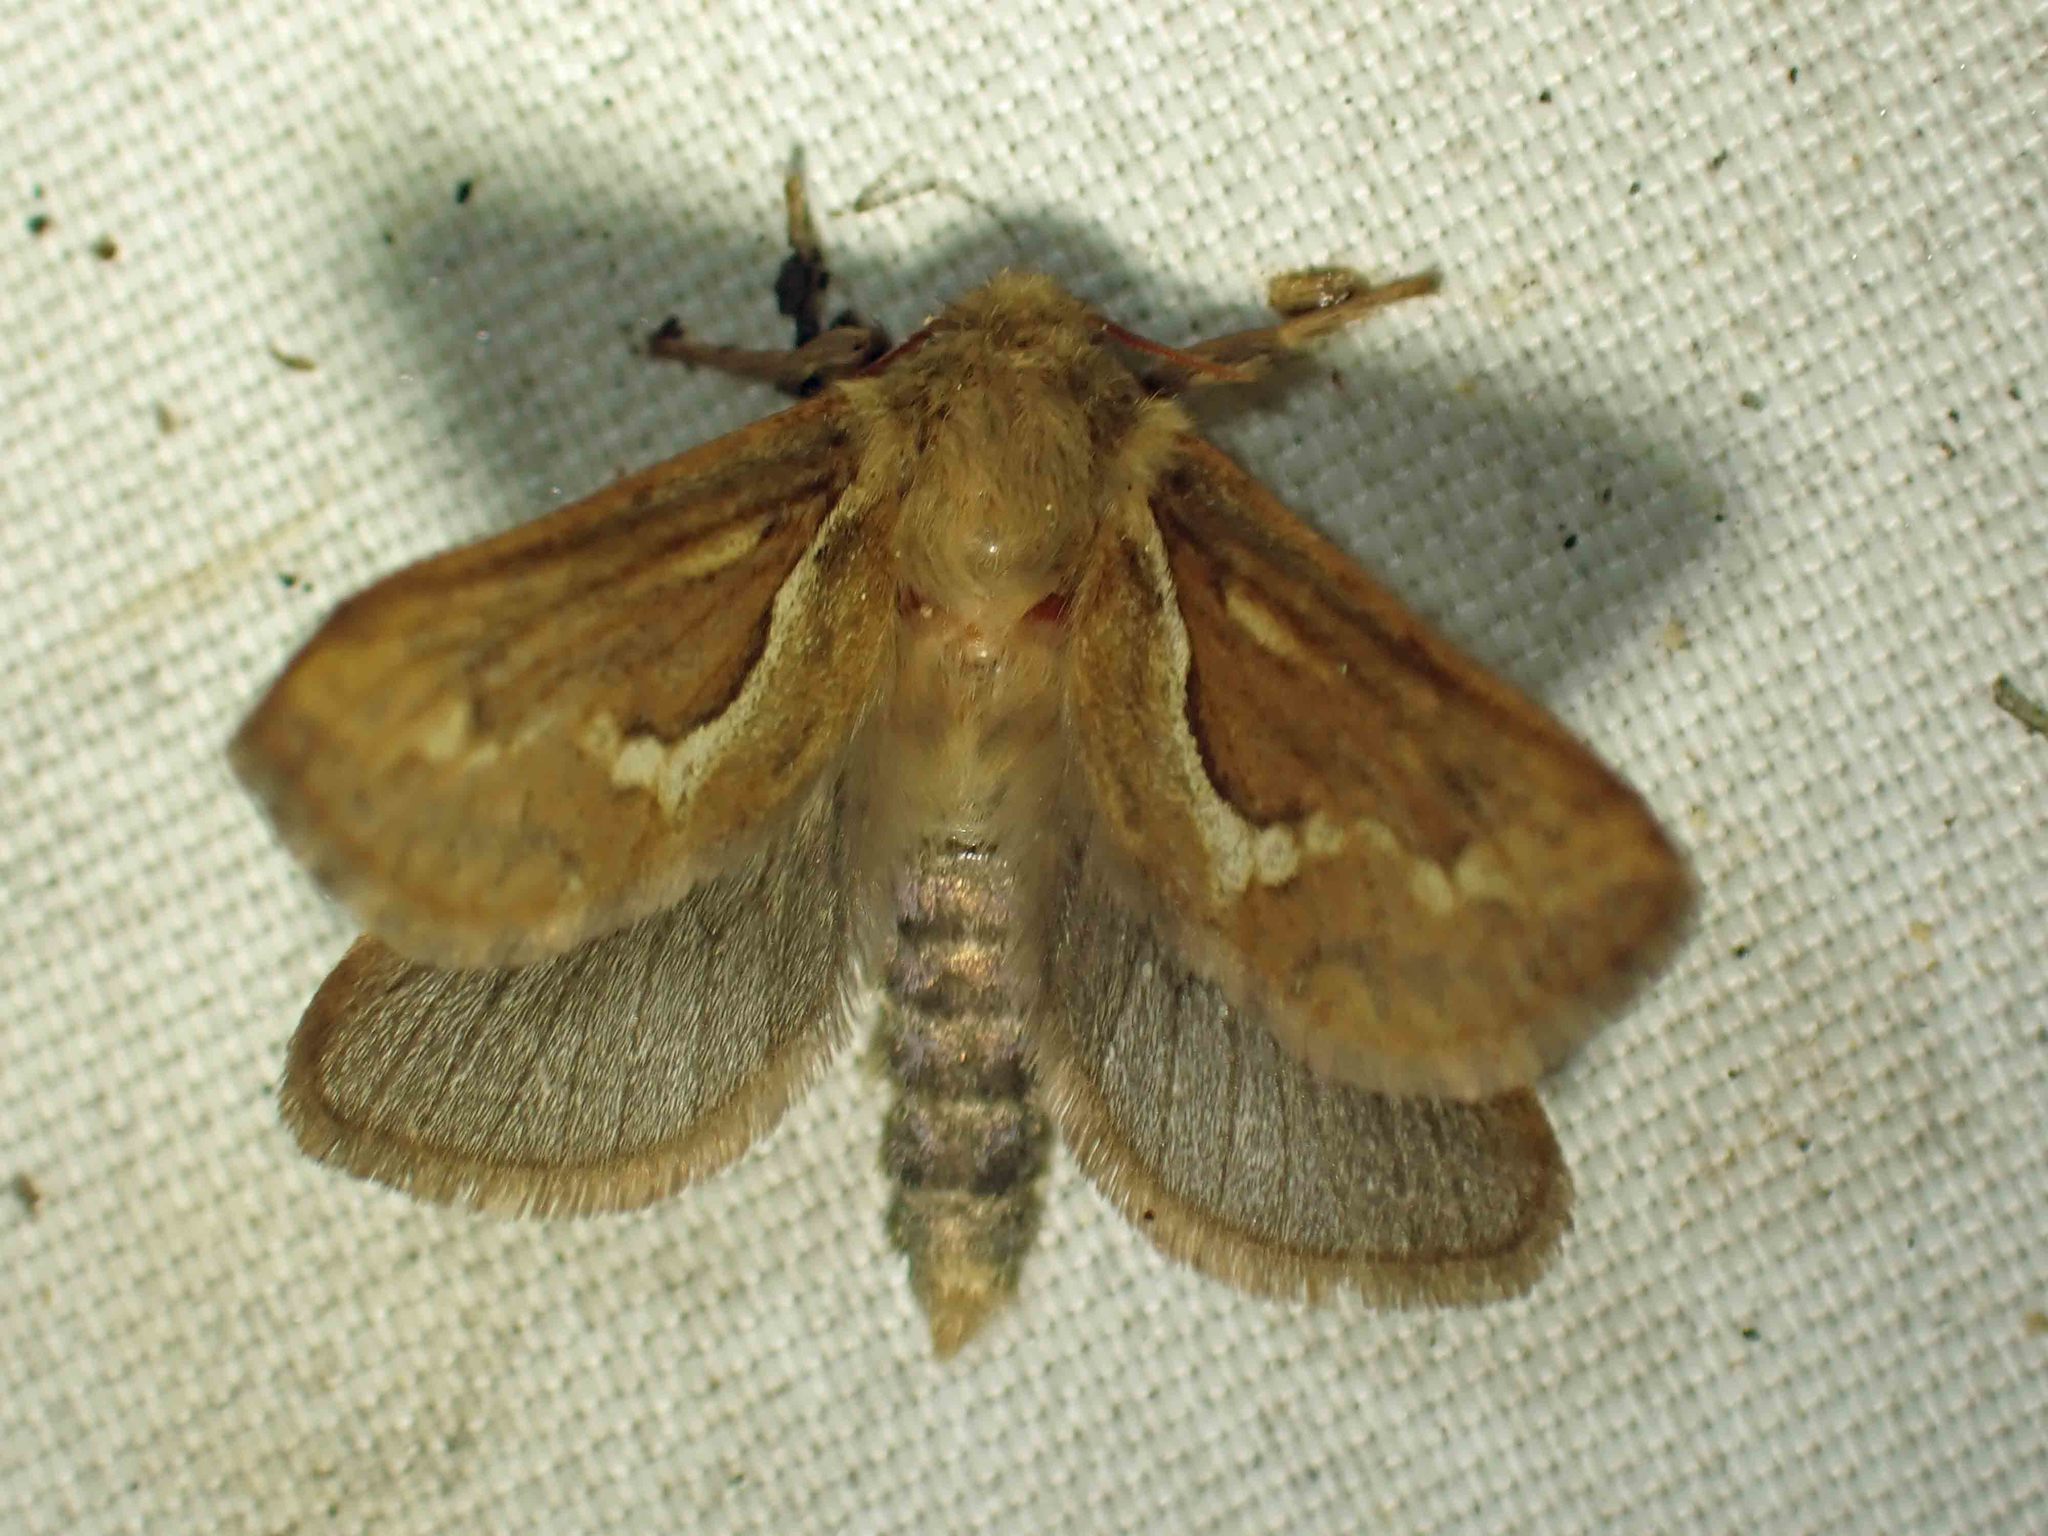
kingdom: Animalia
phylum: Arthropoda
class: Insecta
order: Lepidoptera
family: Hepialidae
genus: Korscheltellus
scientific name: Korscheltellus lupulina
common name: Common swift
